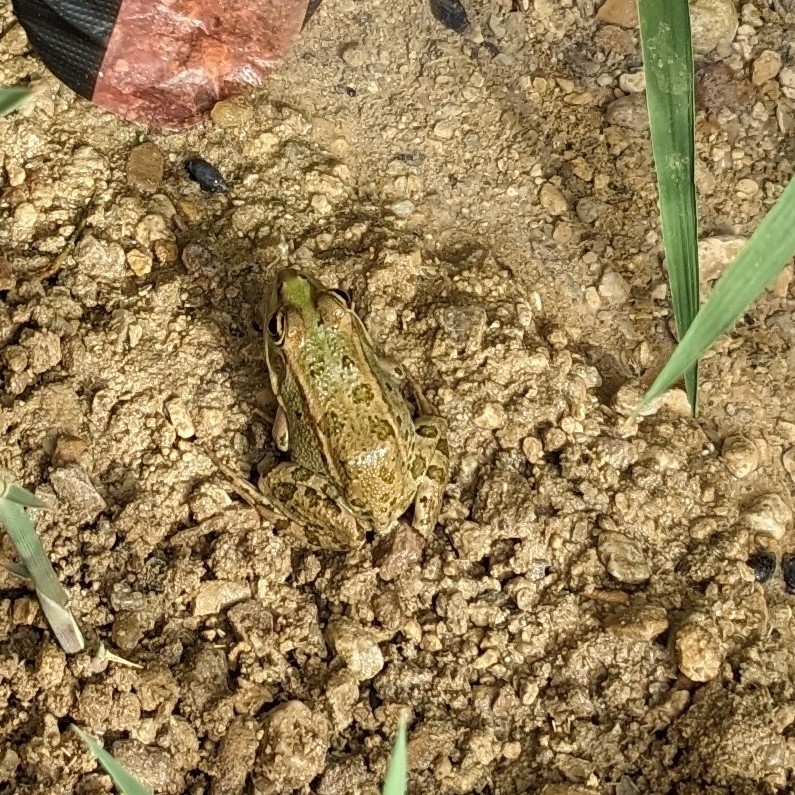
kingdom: Animalia
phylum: Chordata
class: Amphibia
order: Anura
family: Ranidae
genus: Pelophylax
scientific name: Pelophylax saharicus
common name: Sahara frog
